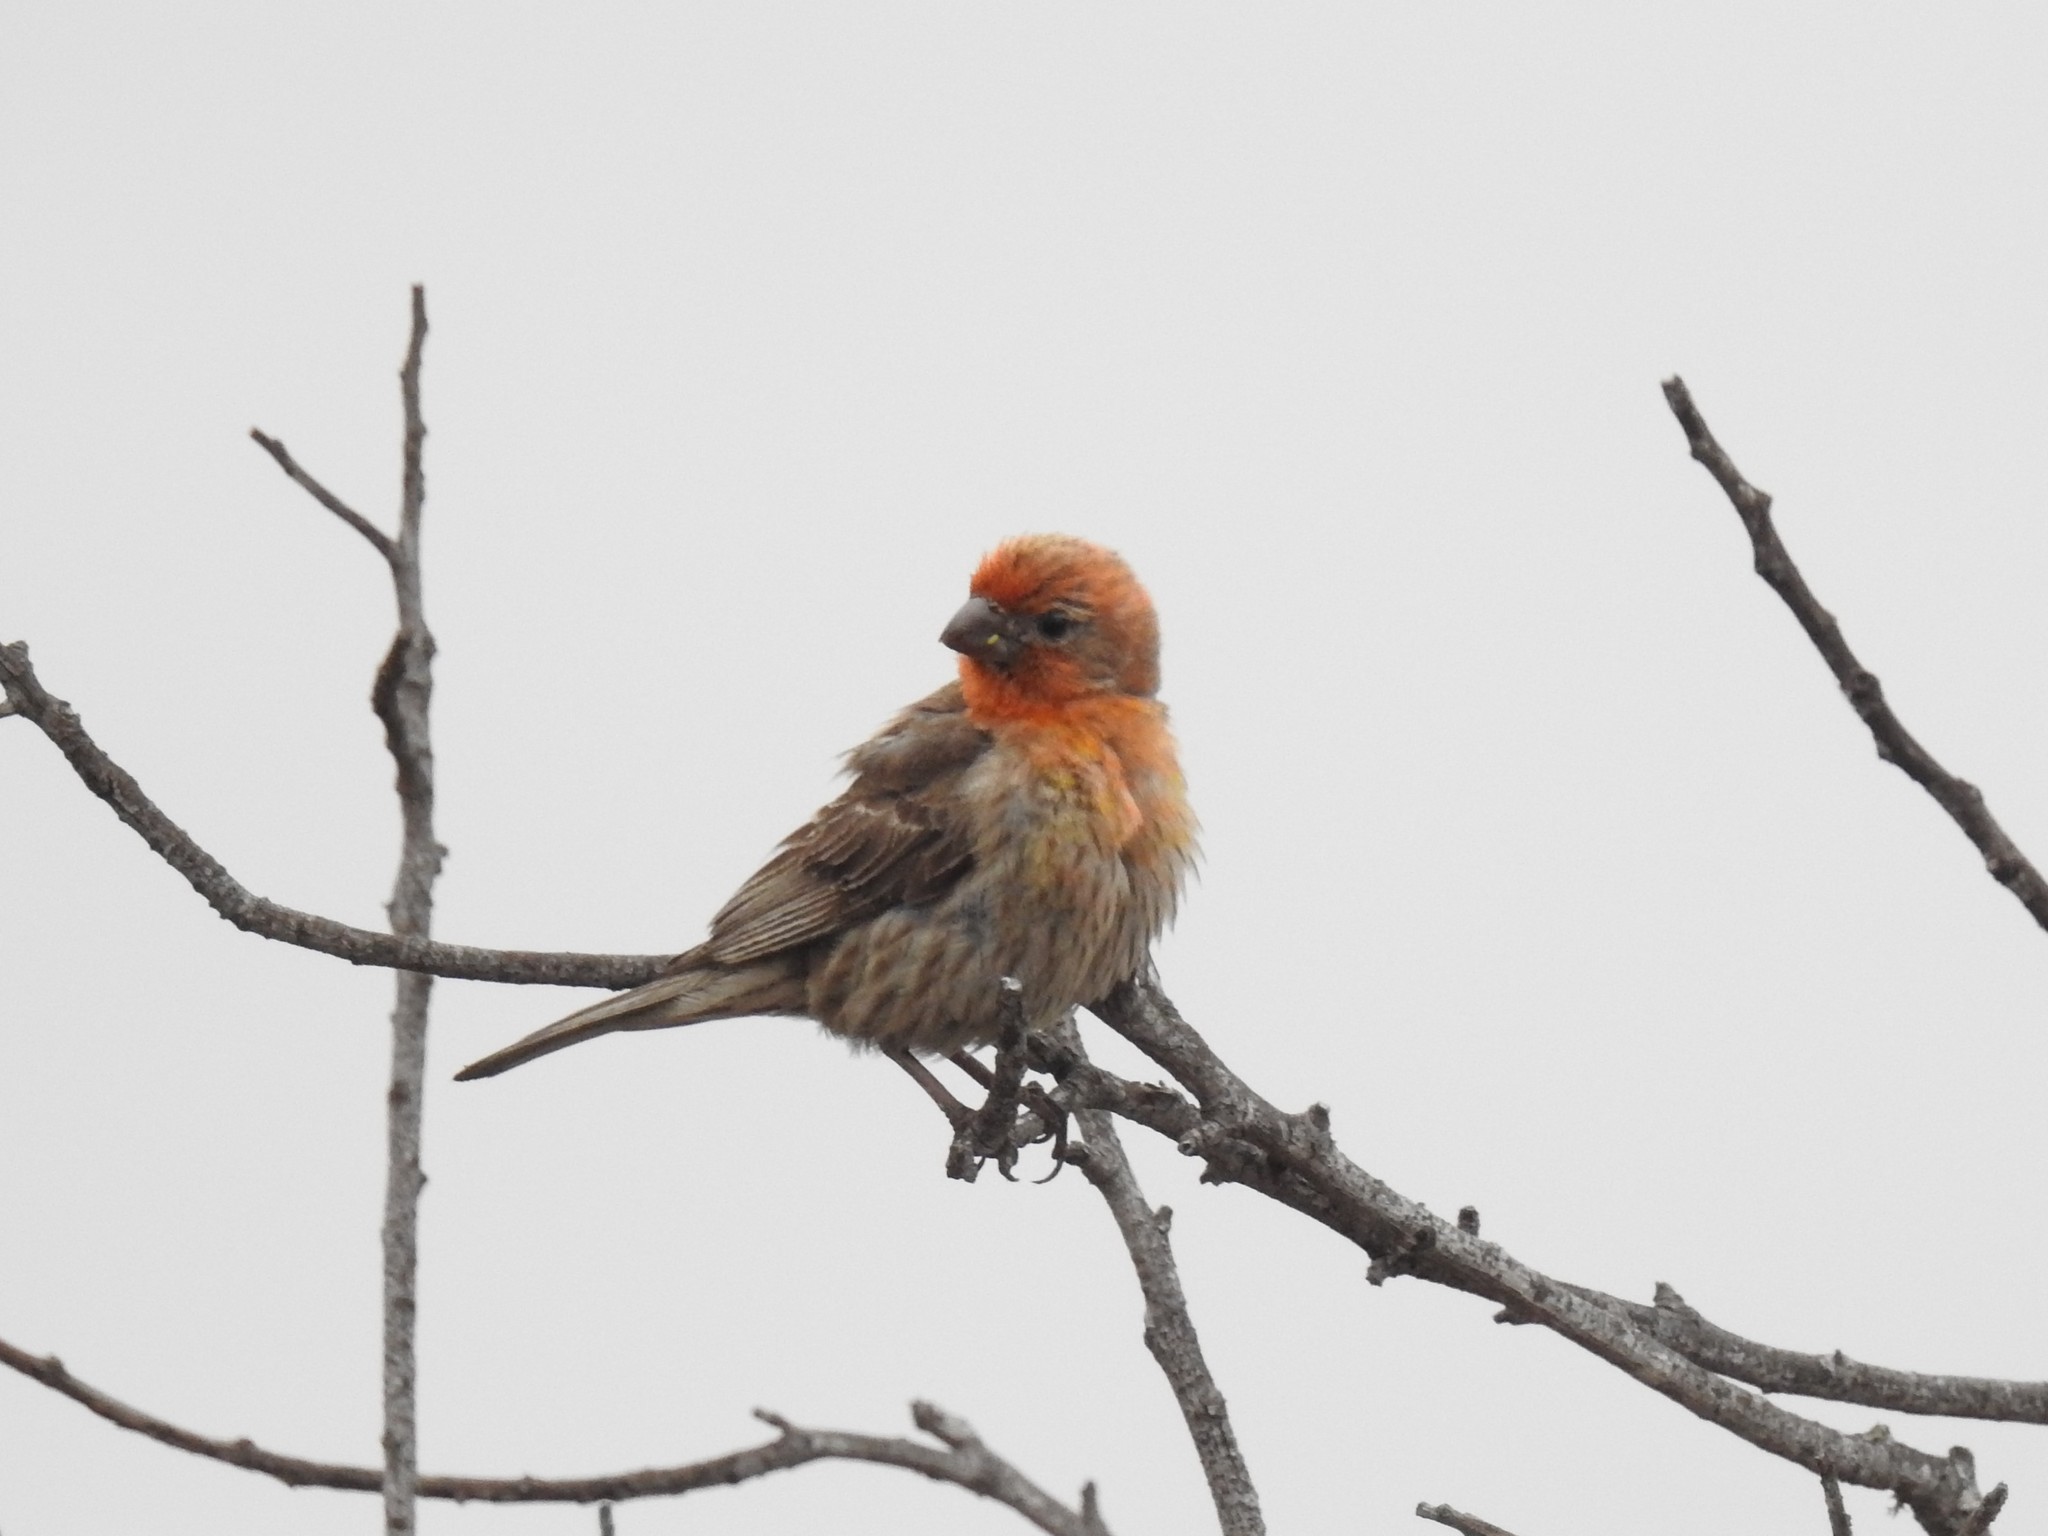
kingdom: Animalia
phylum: Chordata
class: Aves
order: Passeriformes
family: Fringillidae
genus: Haemorhous
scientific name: Haemorhous mexicanus
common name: House finch
